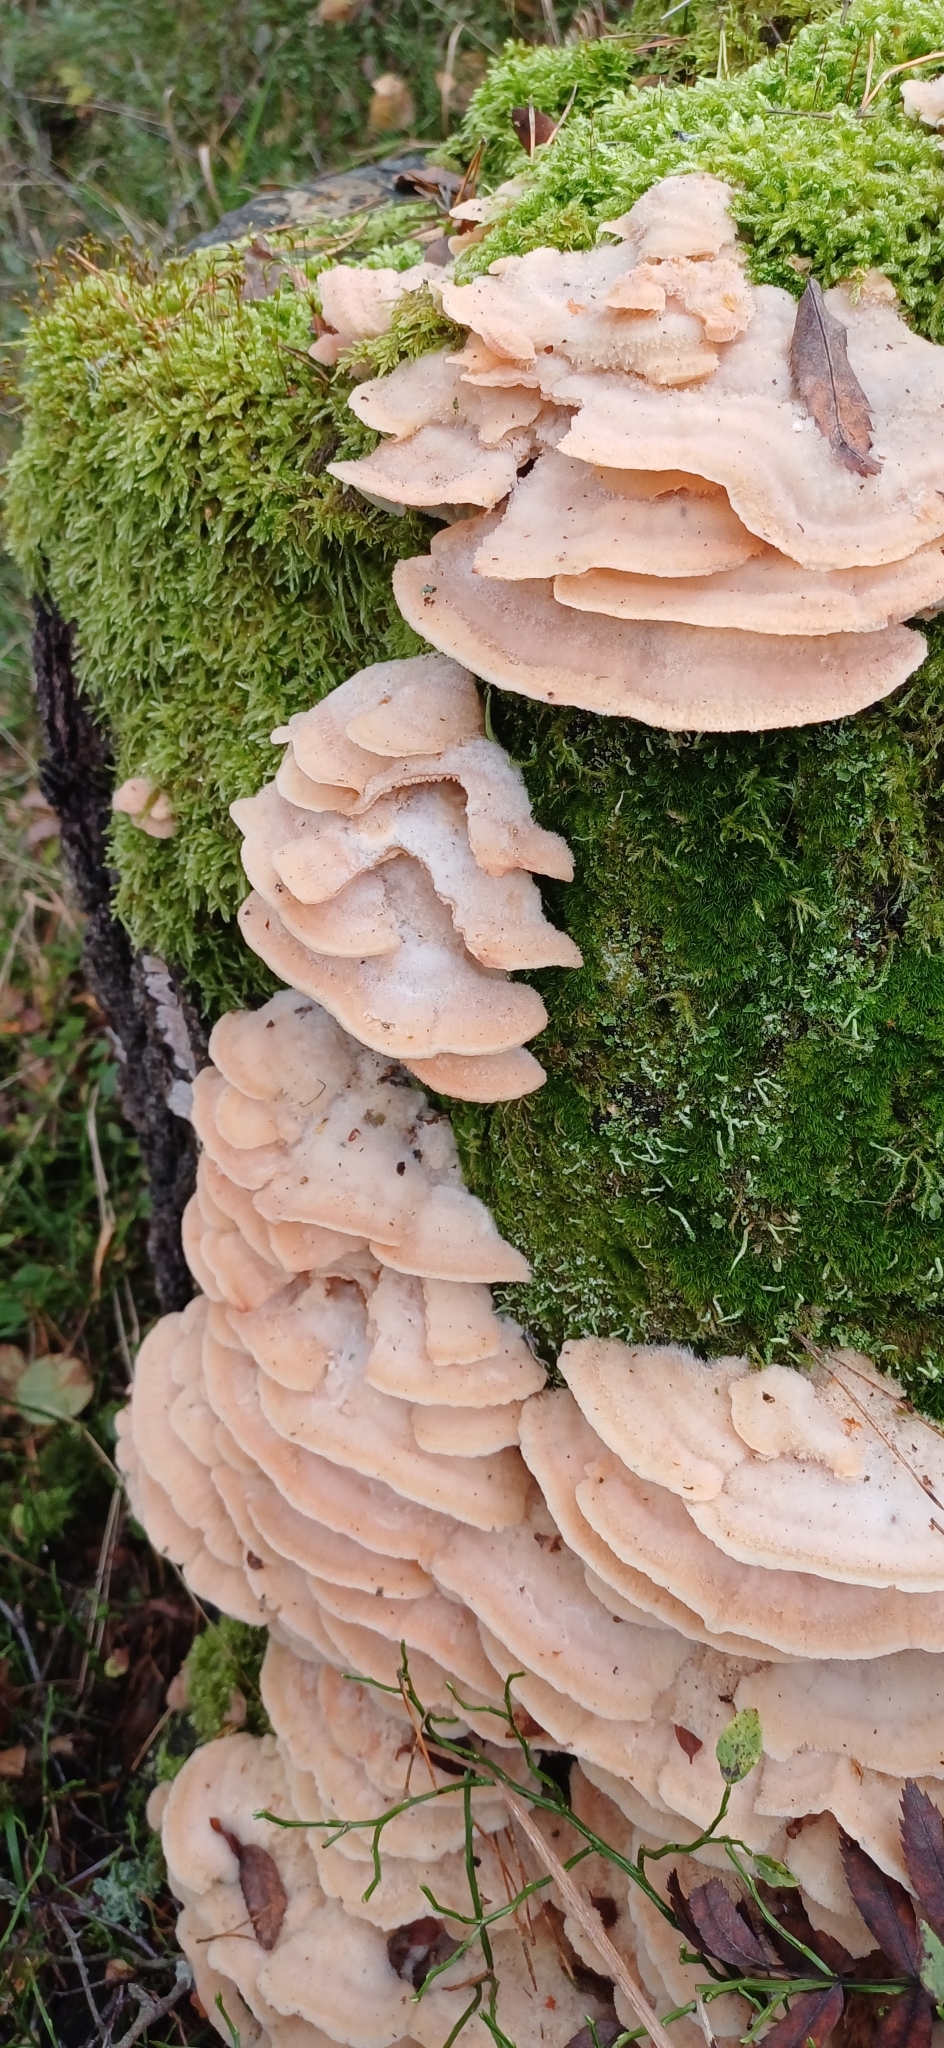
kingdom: Fungi
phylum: Basidiomycota
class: Agaricomycetes
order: Polyporales
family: Meruliaceae
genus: Phlebia
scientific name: Phlebia tremellosa
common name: Jelly rot
